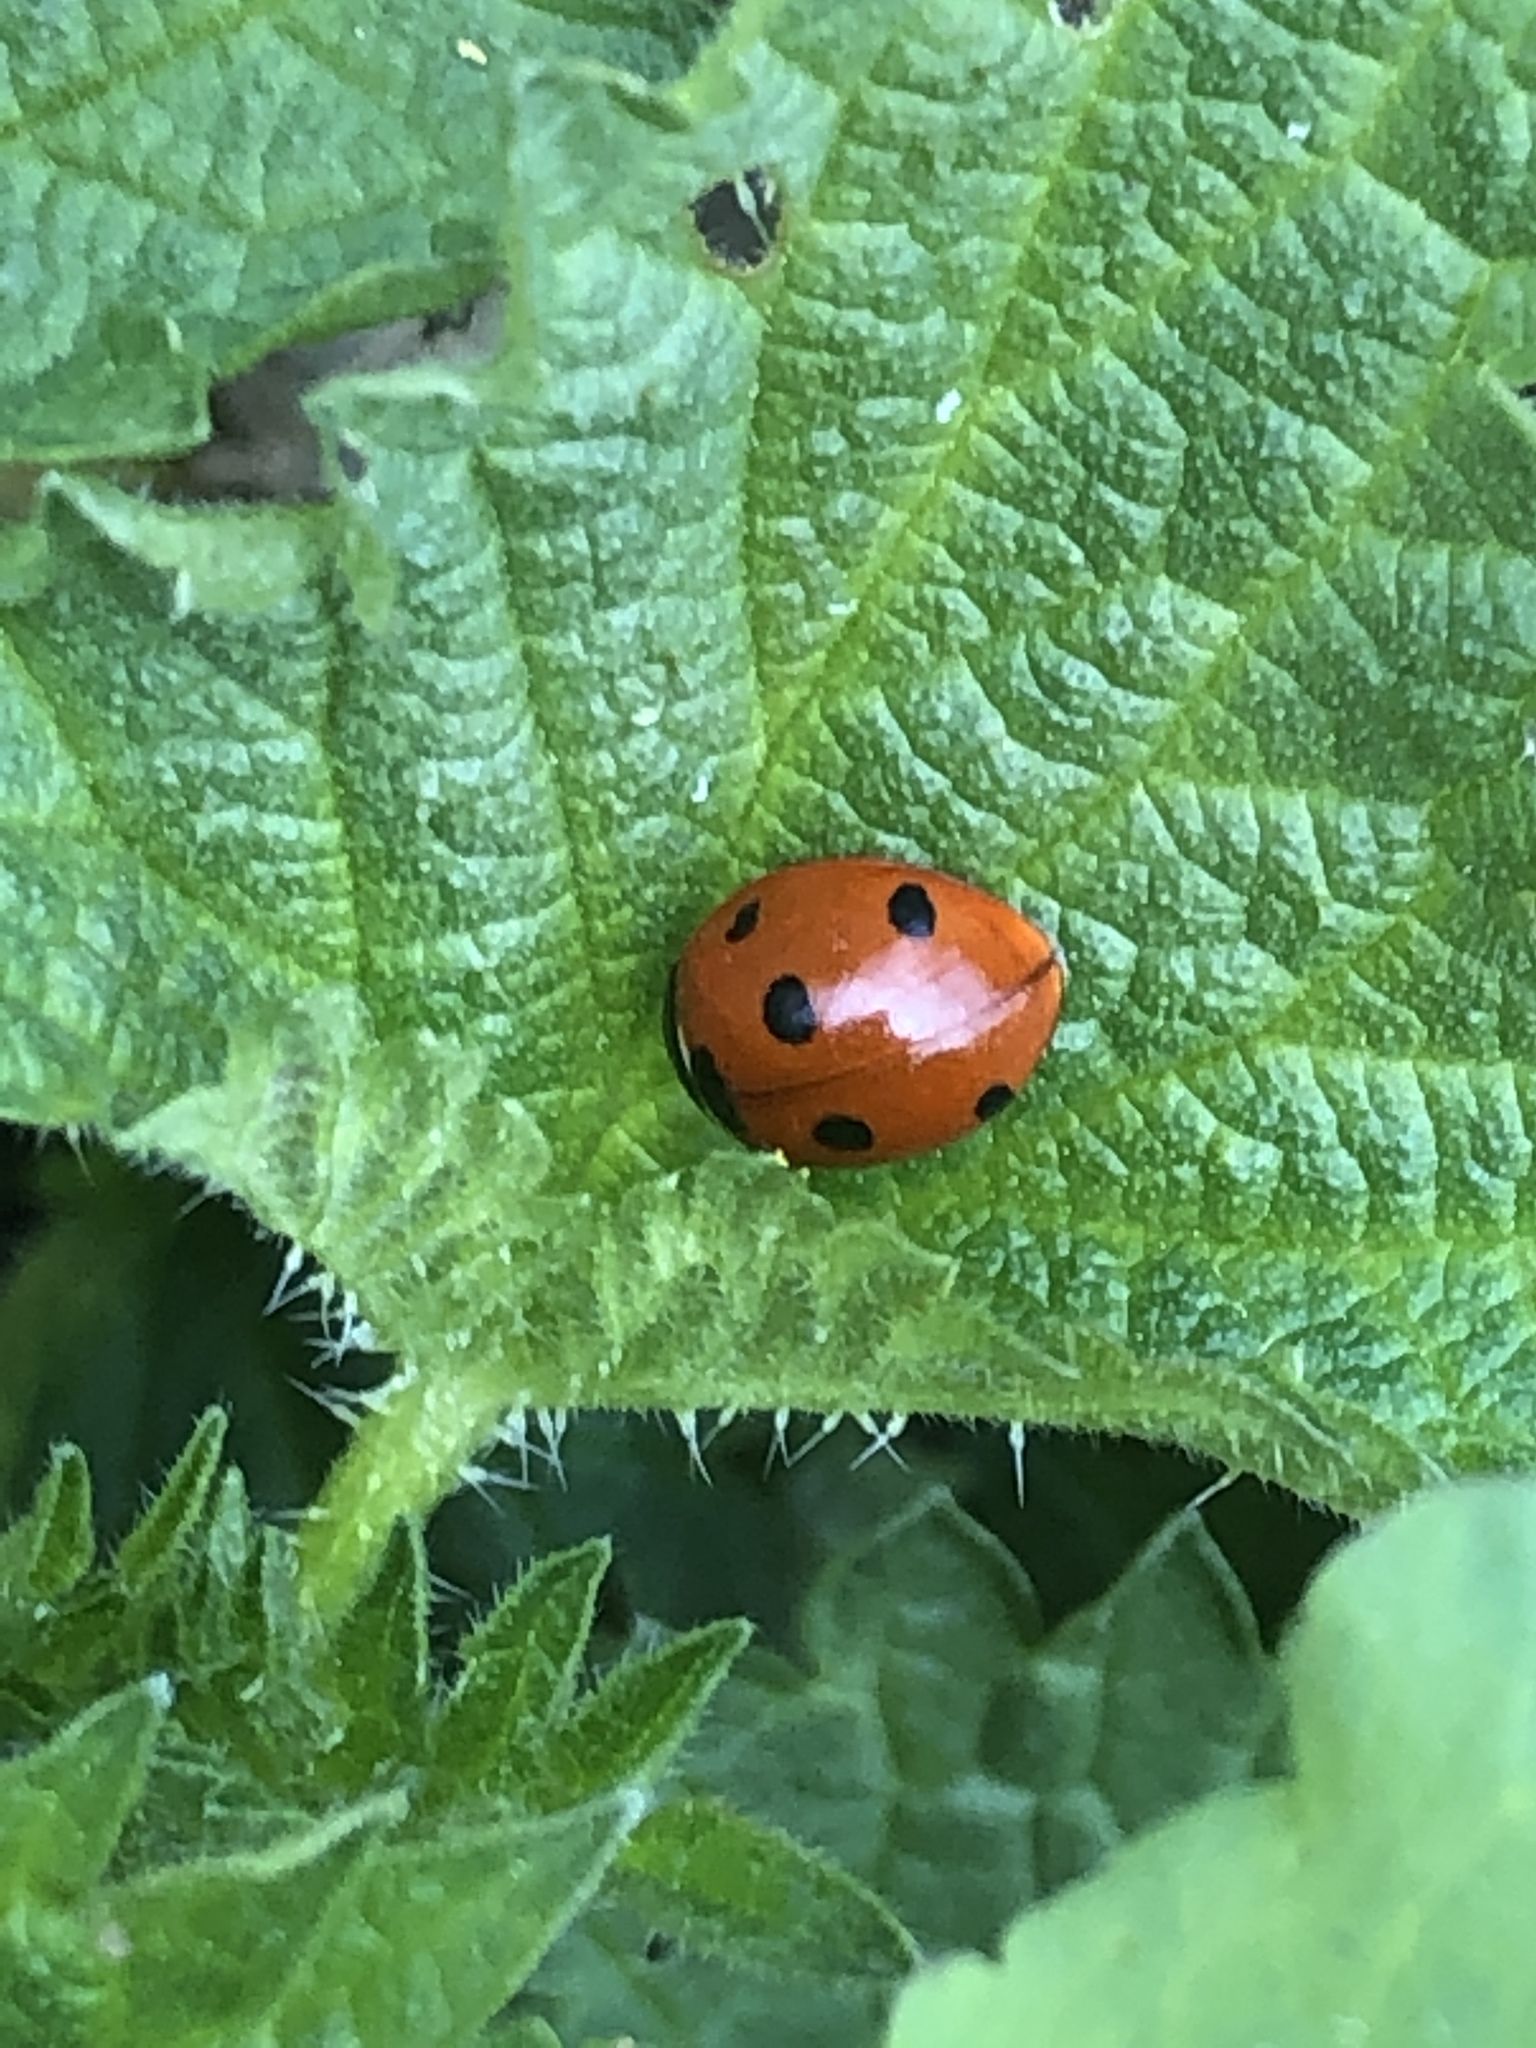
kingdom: Animalia
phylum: Arthropoda
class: Insecta
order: Coleoptera
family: Coccinellidae
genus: Coccinella
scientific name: Coccinella septempunctata
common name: Sevenspotted lady beetle
